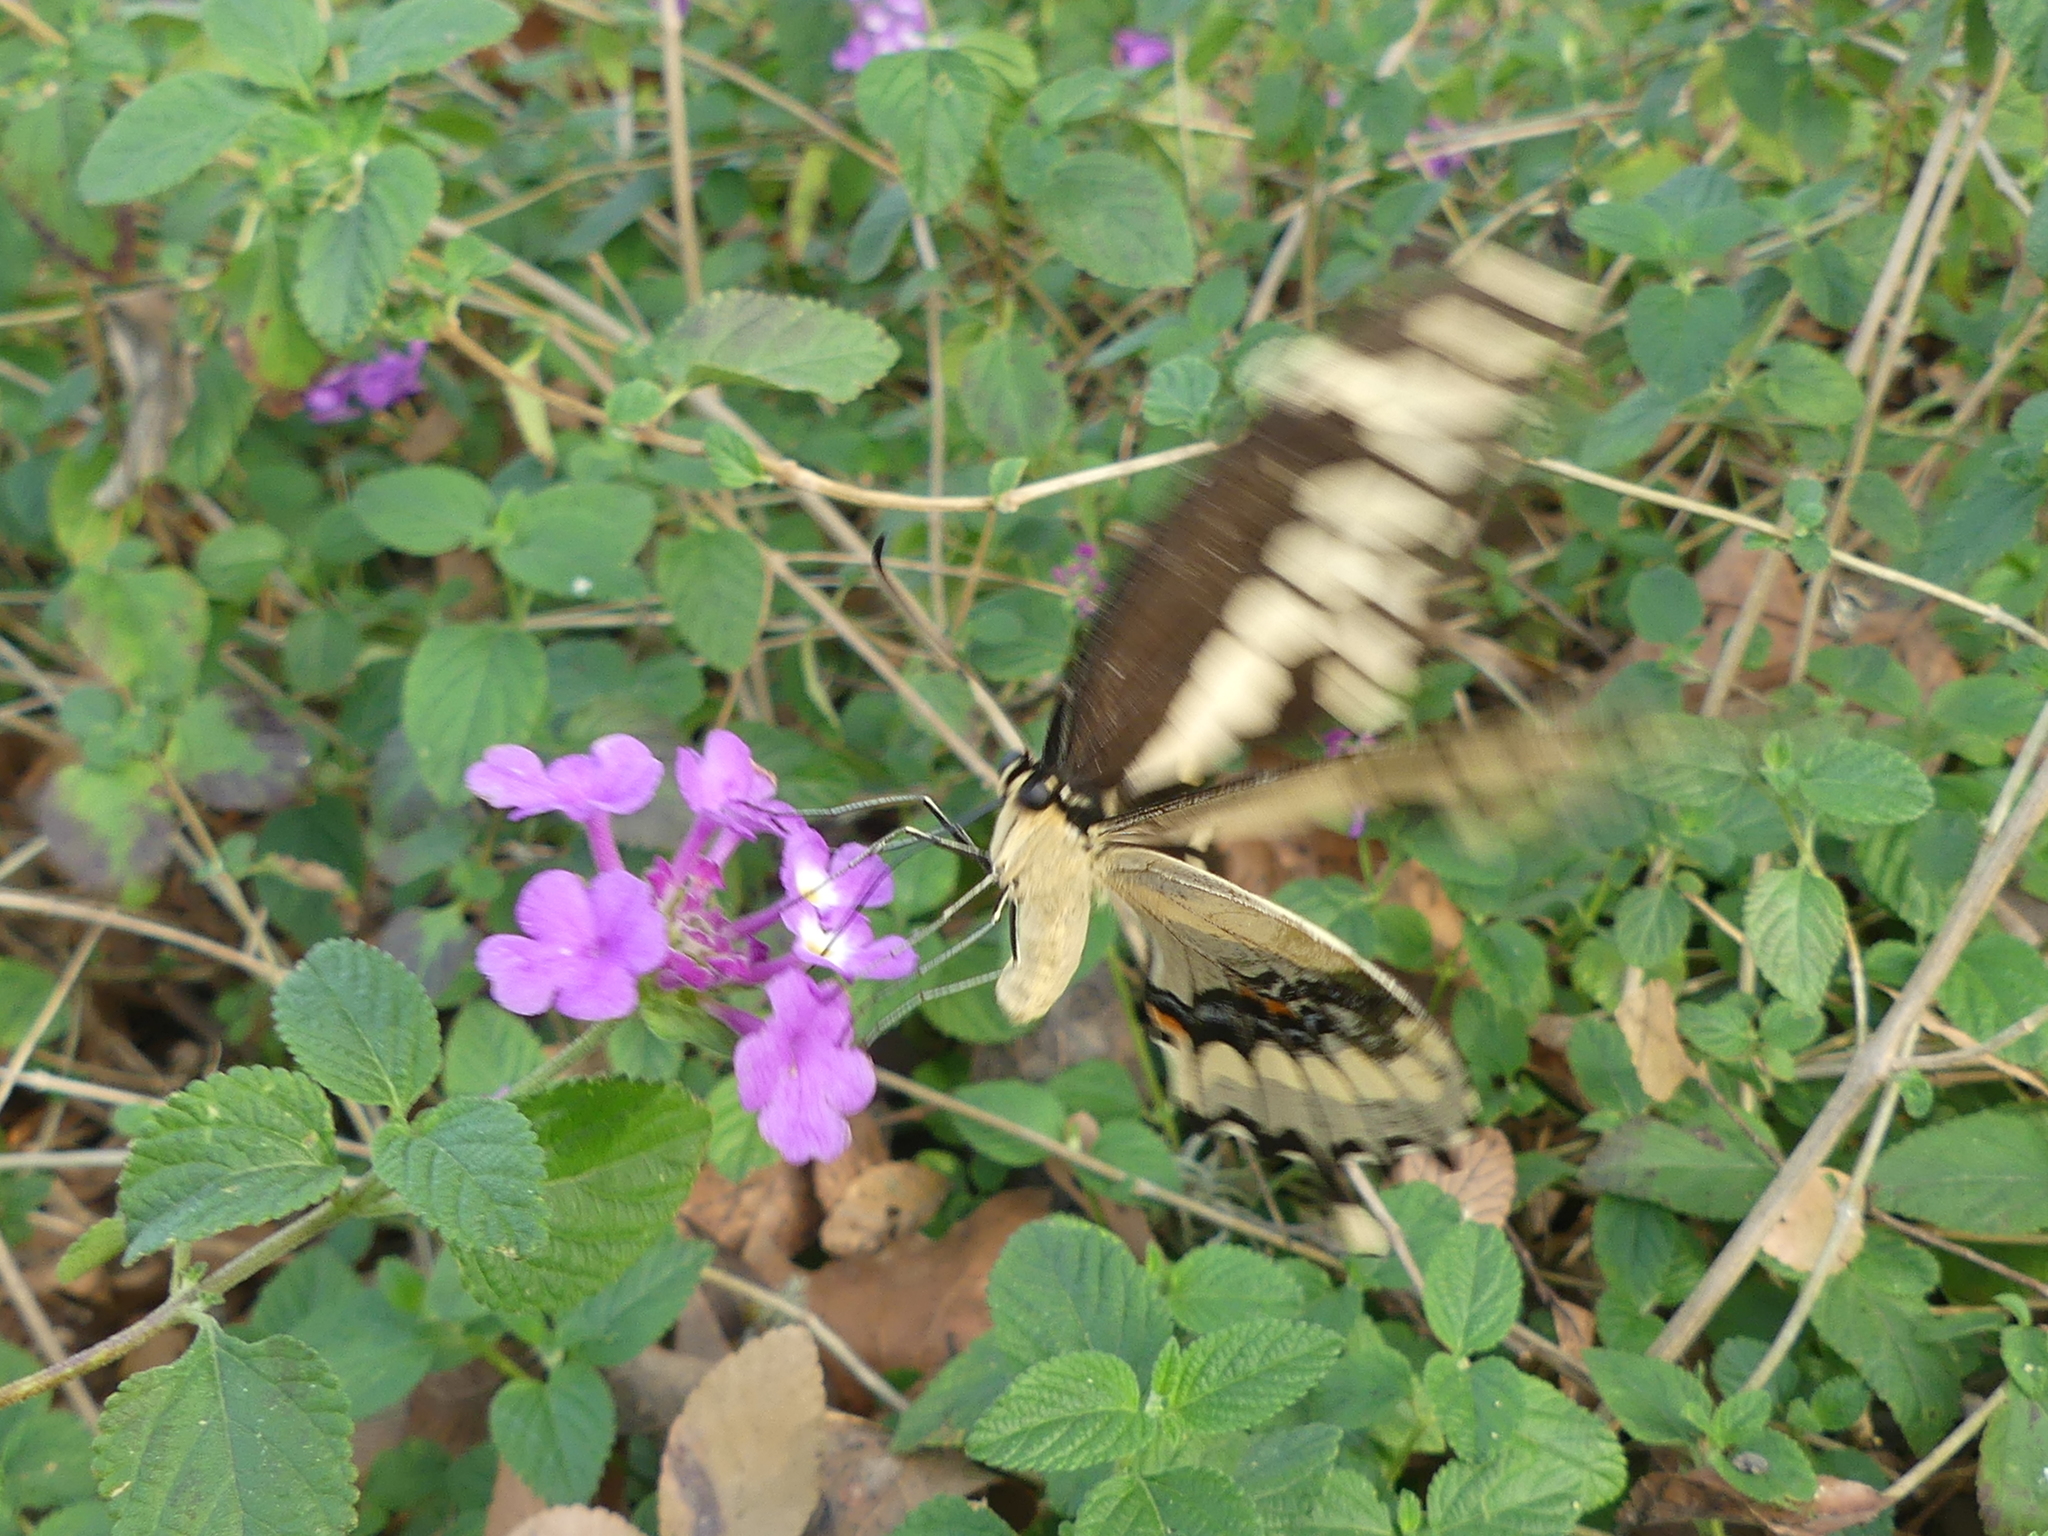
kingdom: Animalia
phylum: Arthropoda
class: Insecta
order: Lepidoptera
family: Papilionidae
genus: Papilio
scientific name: Papilio cresphontes
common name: Giant swallowtail
